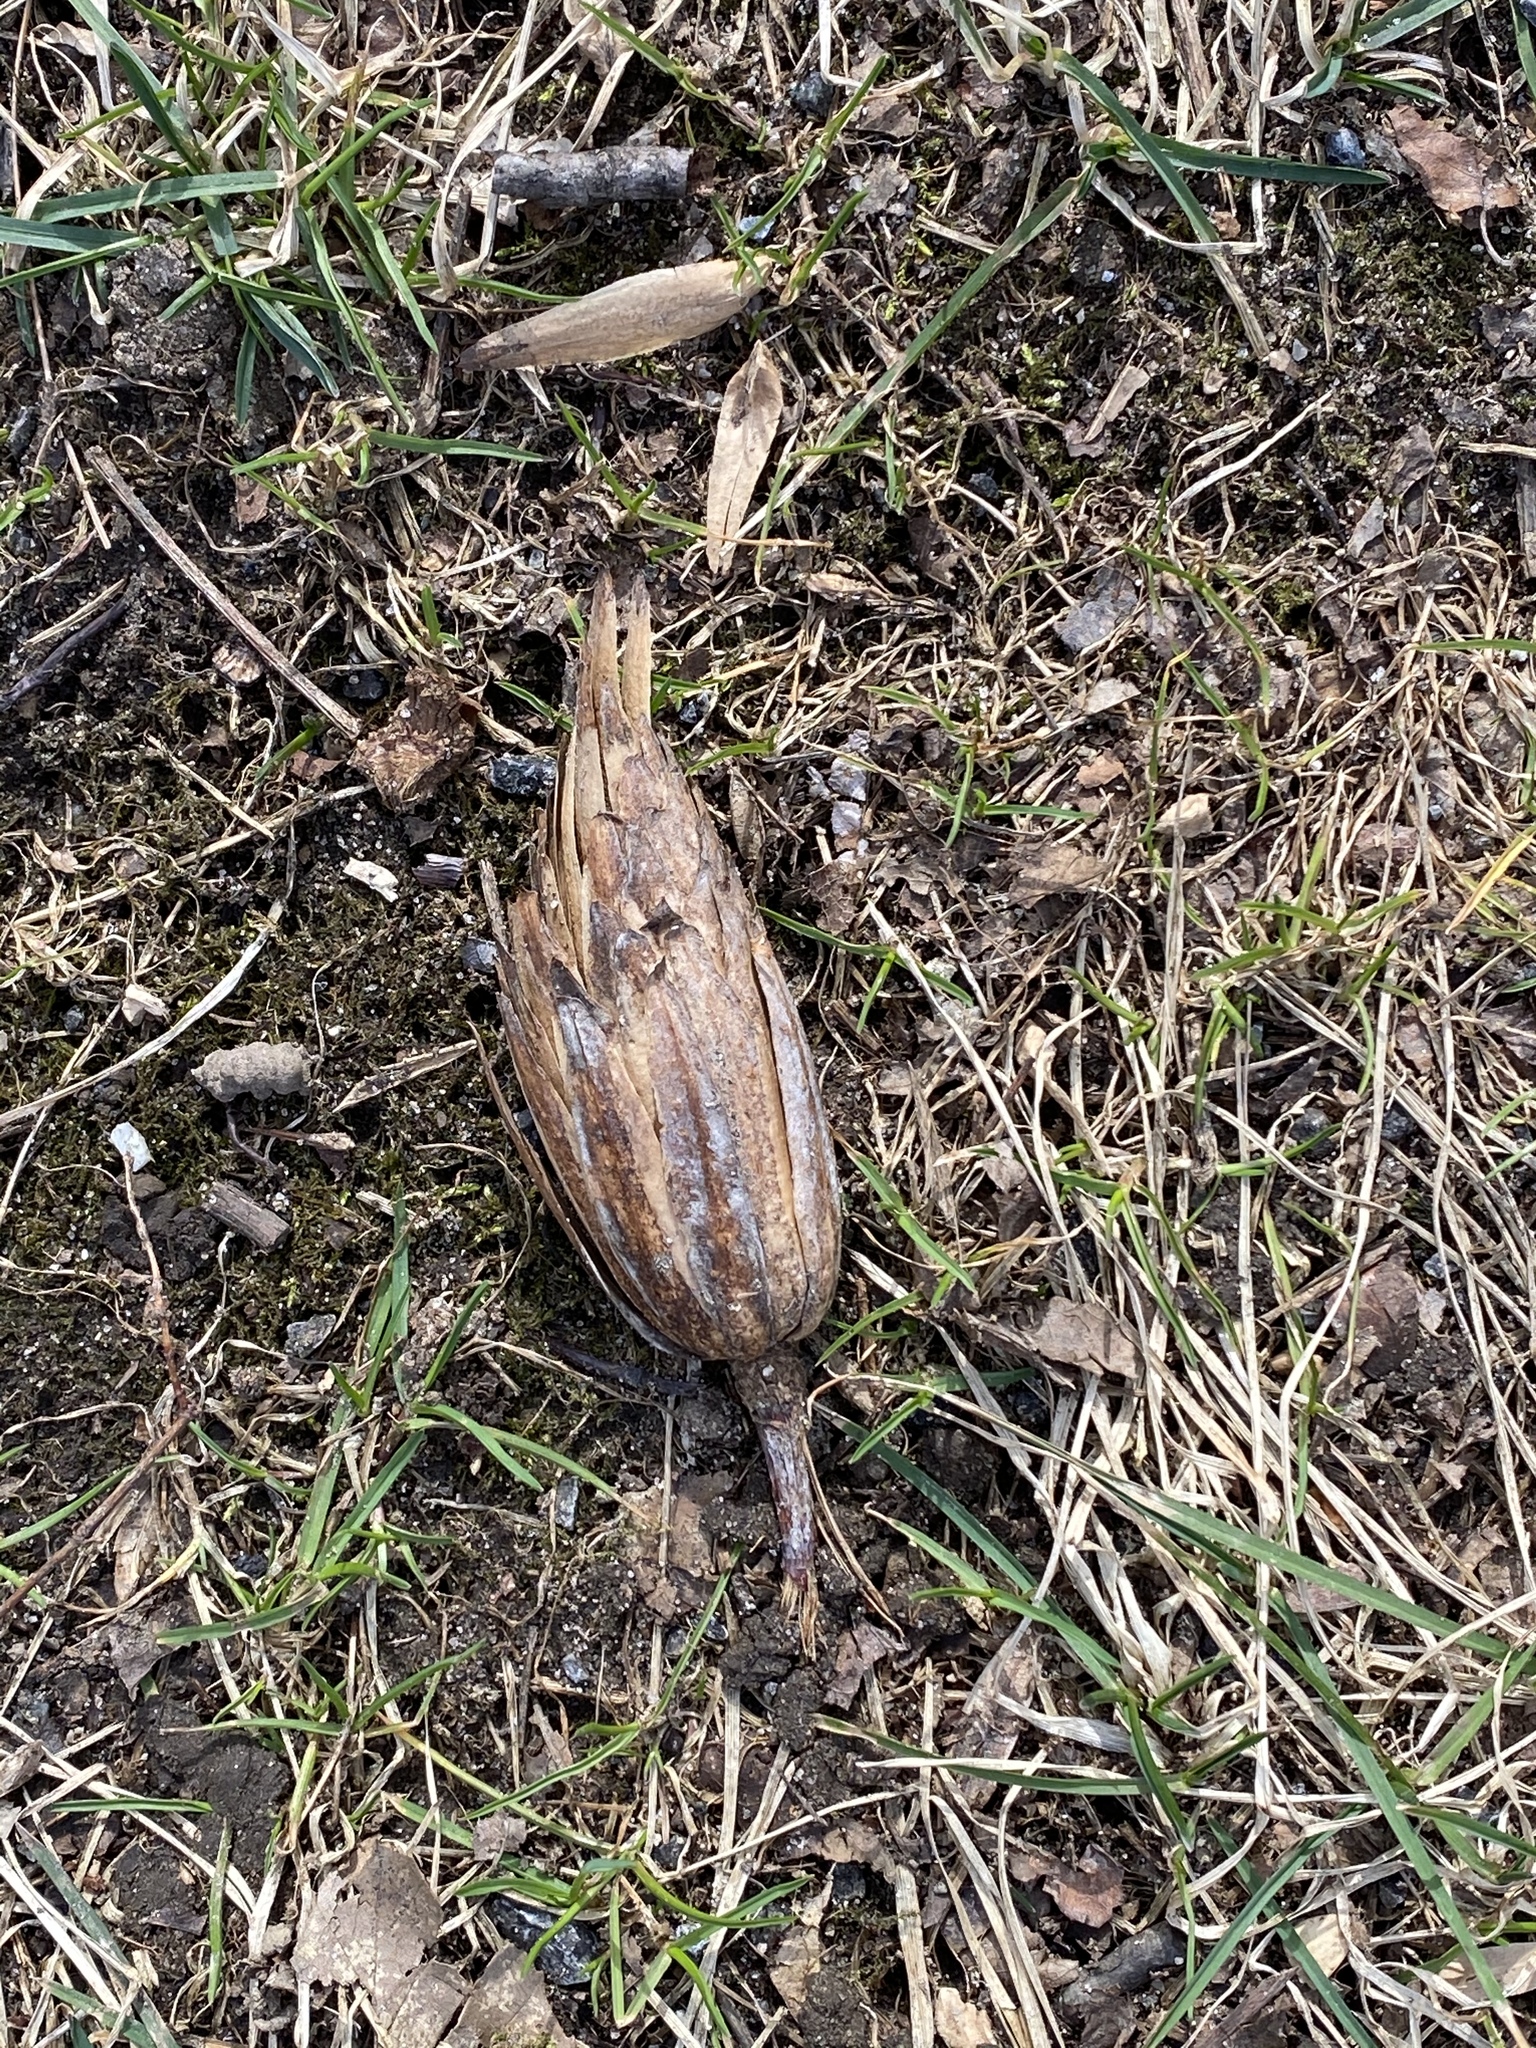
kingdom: Plantae
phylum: Tracheophyta
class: Magnoliopsida
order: Magnoliales
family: Magnoliaceae
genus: Liriodendron
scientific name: Liriodendron tulipifera
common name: Tulip tree
